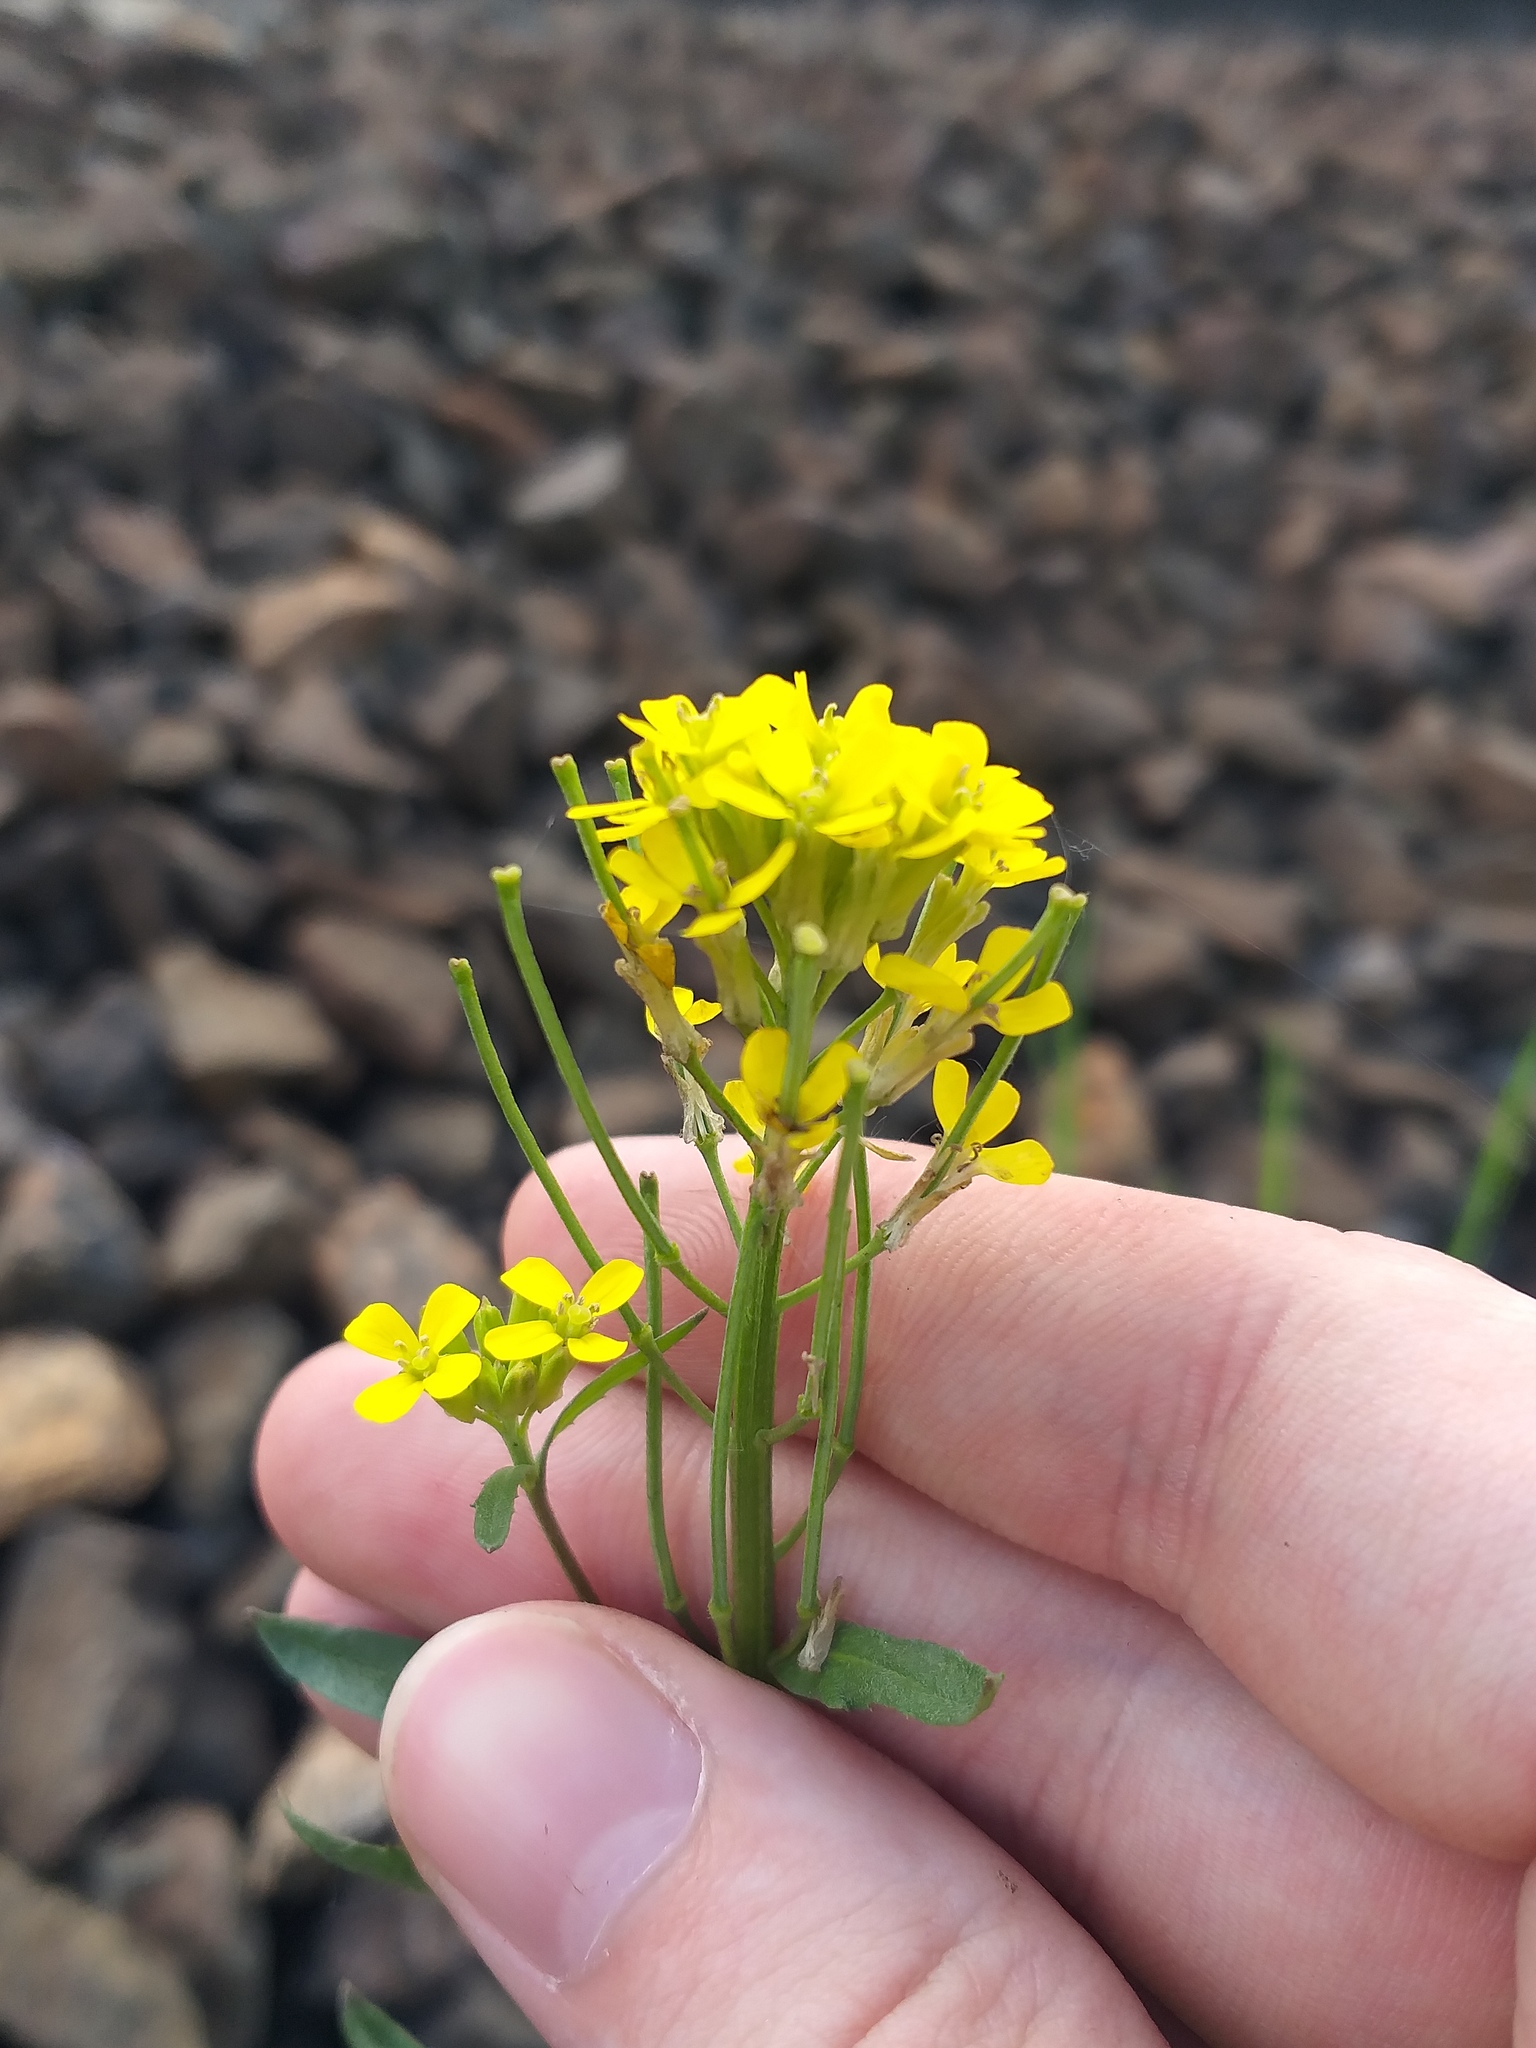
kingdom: Plantae
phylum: Tracheophyta
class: Magnoliopsida
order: Brassicales
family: Brassicaceae
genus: Erysimum
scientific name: Erysimum hieraciifolium
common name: European wallflower
